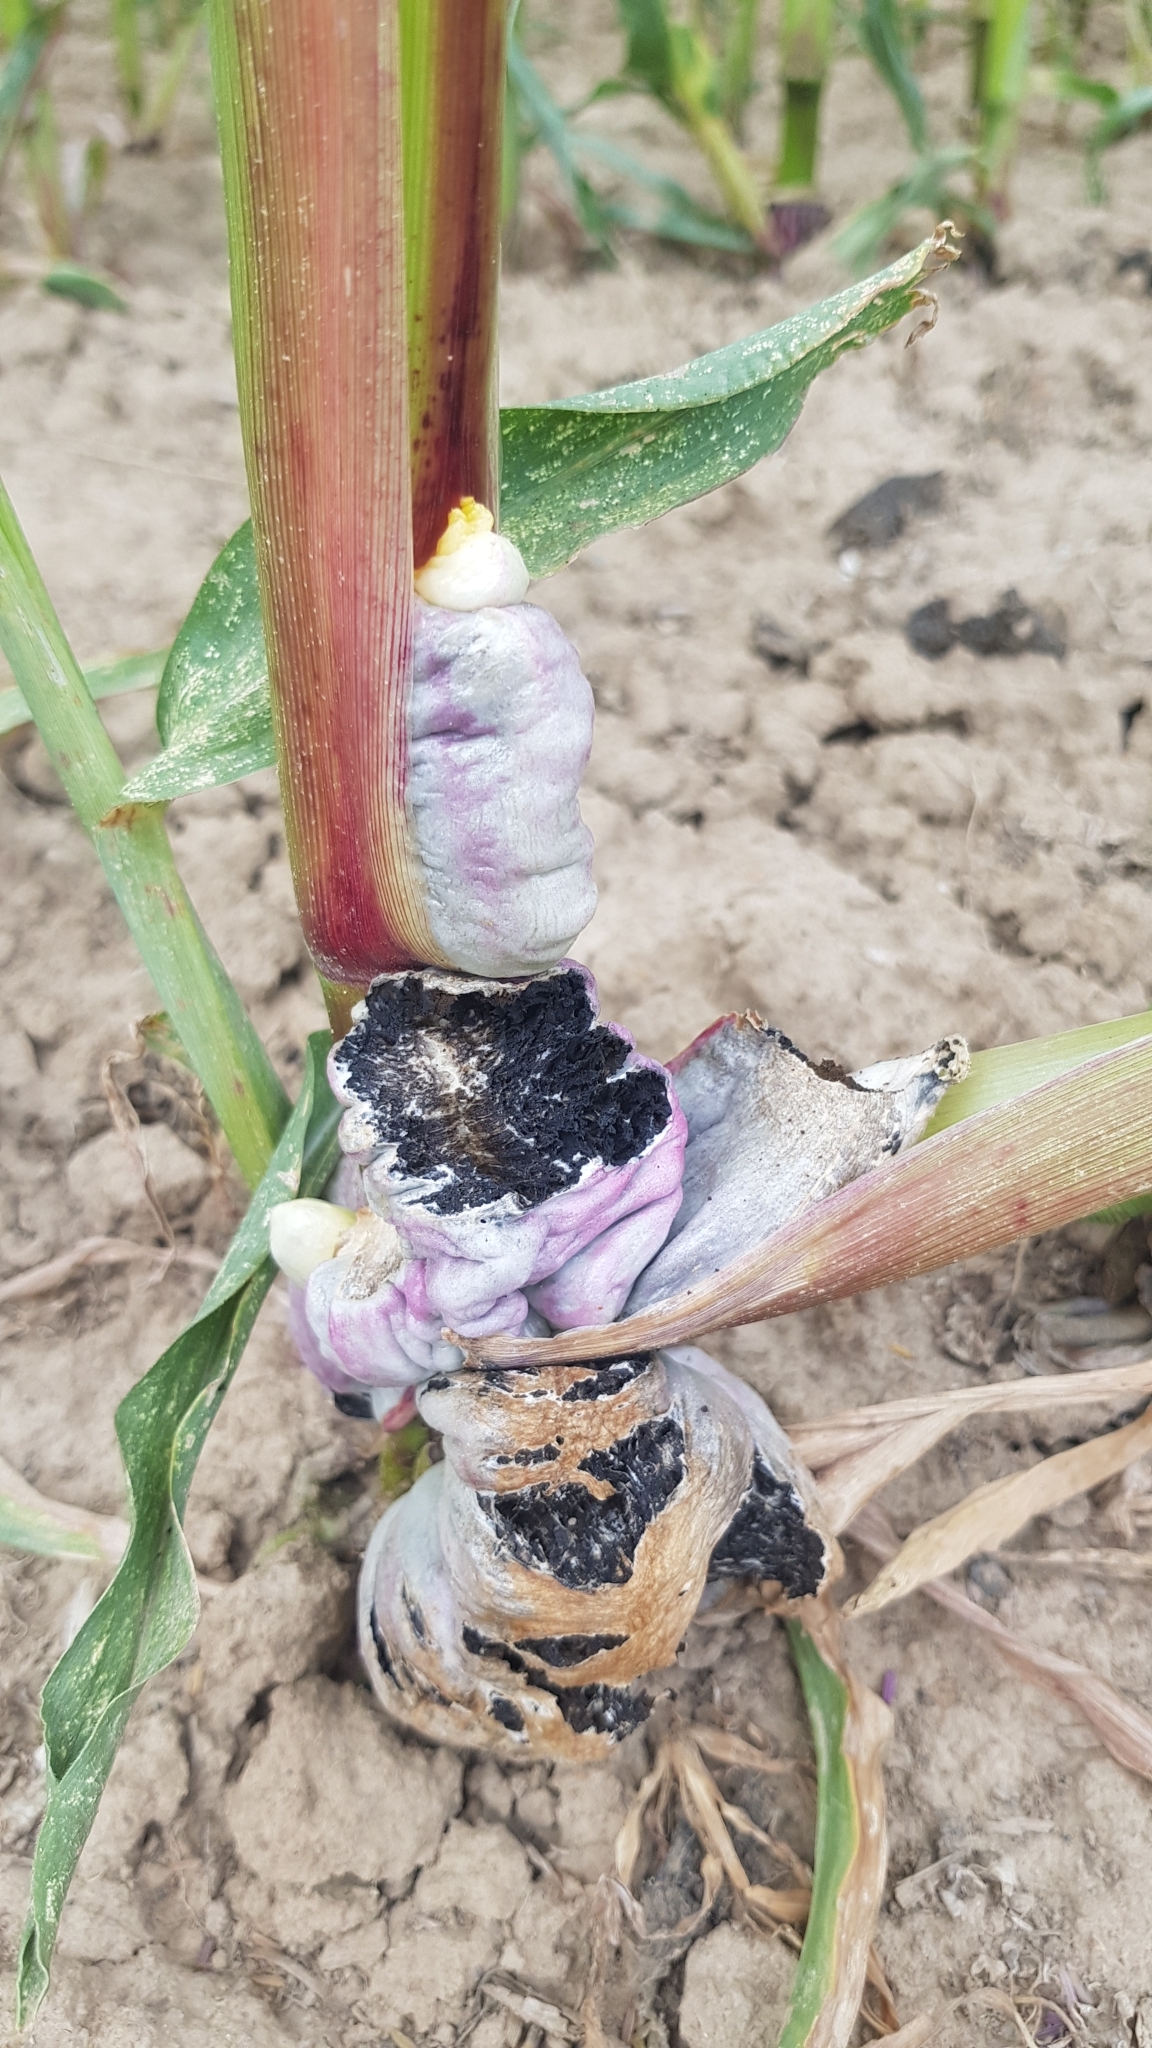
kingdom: Fungi
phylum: Basidiomycota
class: Ustilaginomycetes
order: Ustilaginales
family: Ustilaginaceae
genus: Mycosarcoma
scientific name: Mycosarcoma maydis
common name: Corn smut
